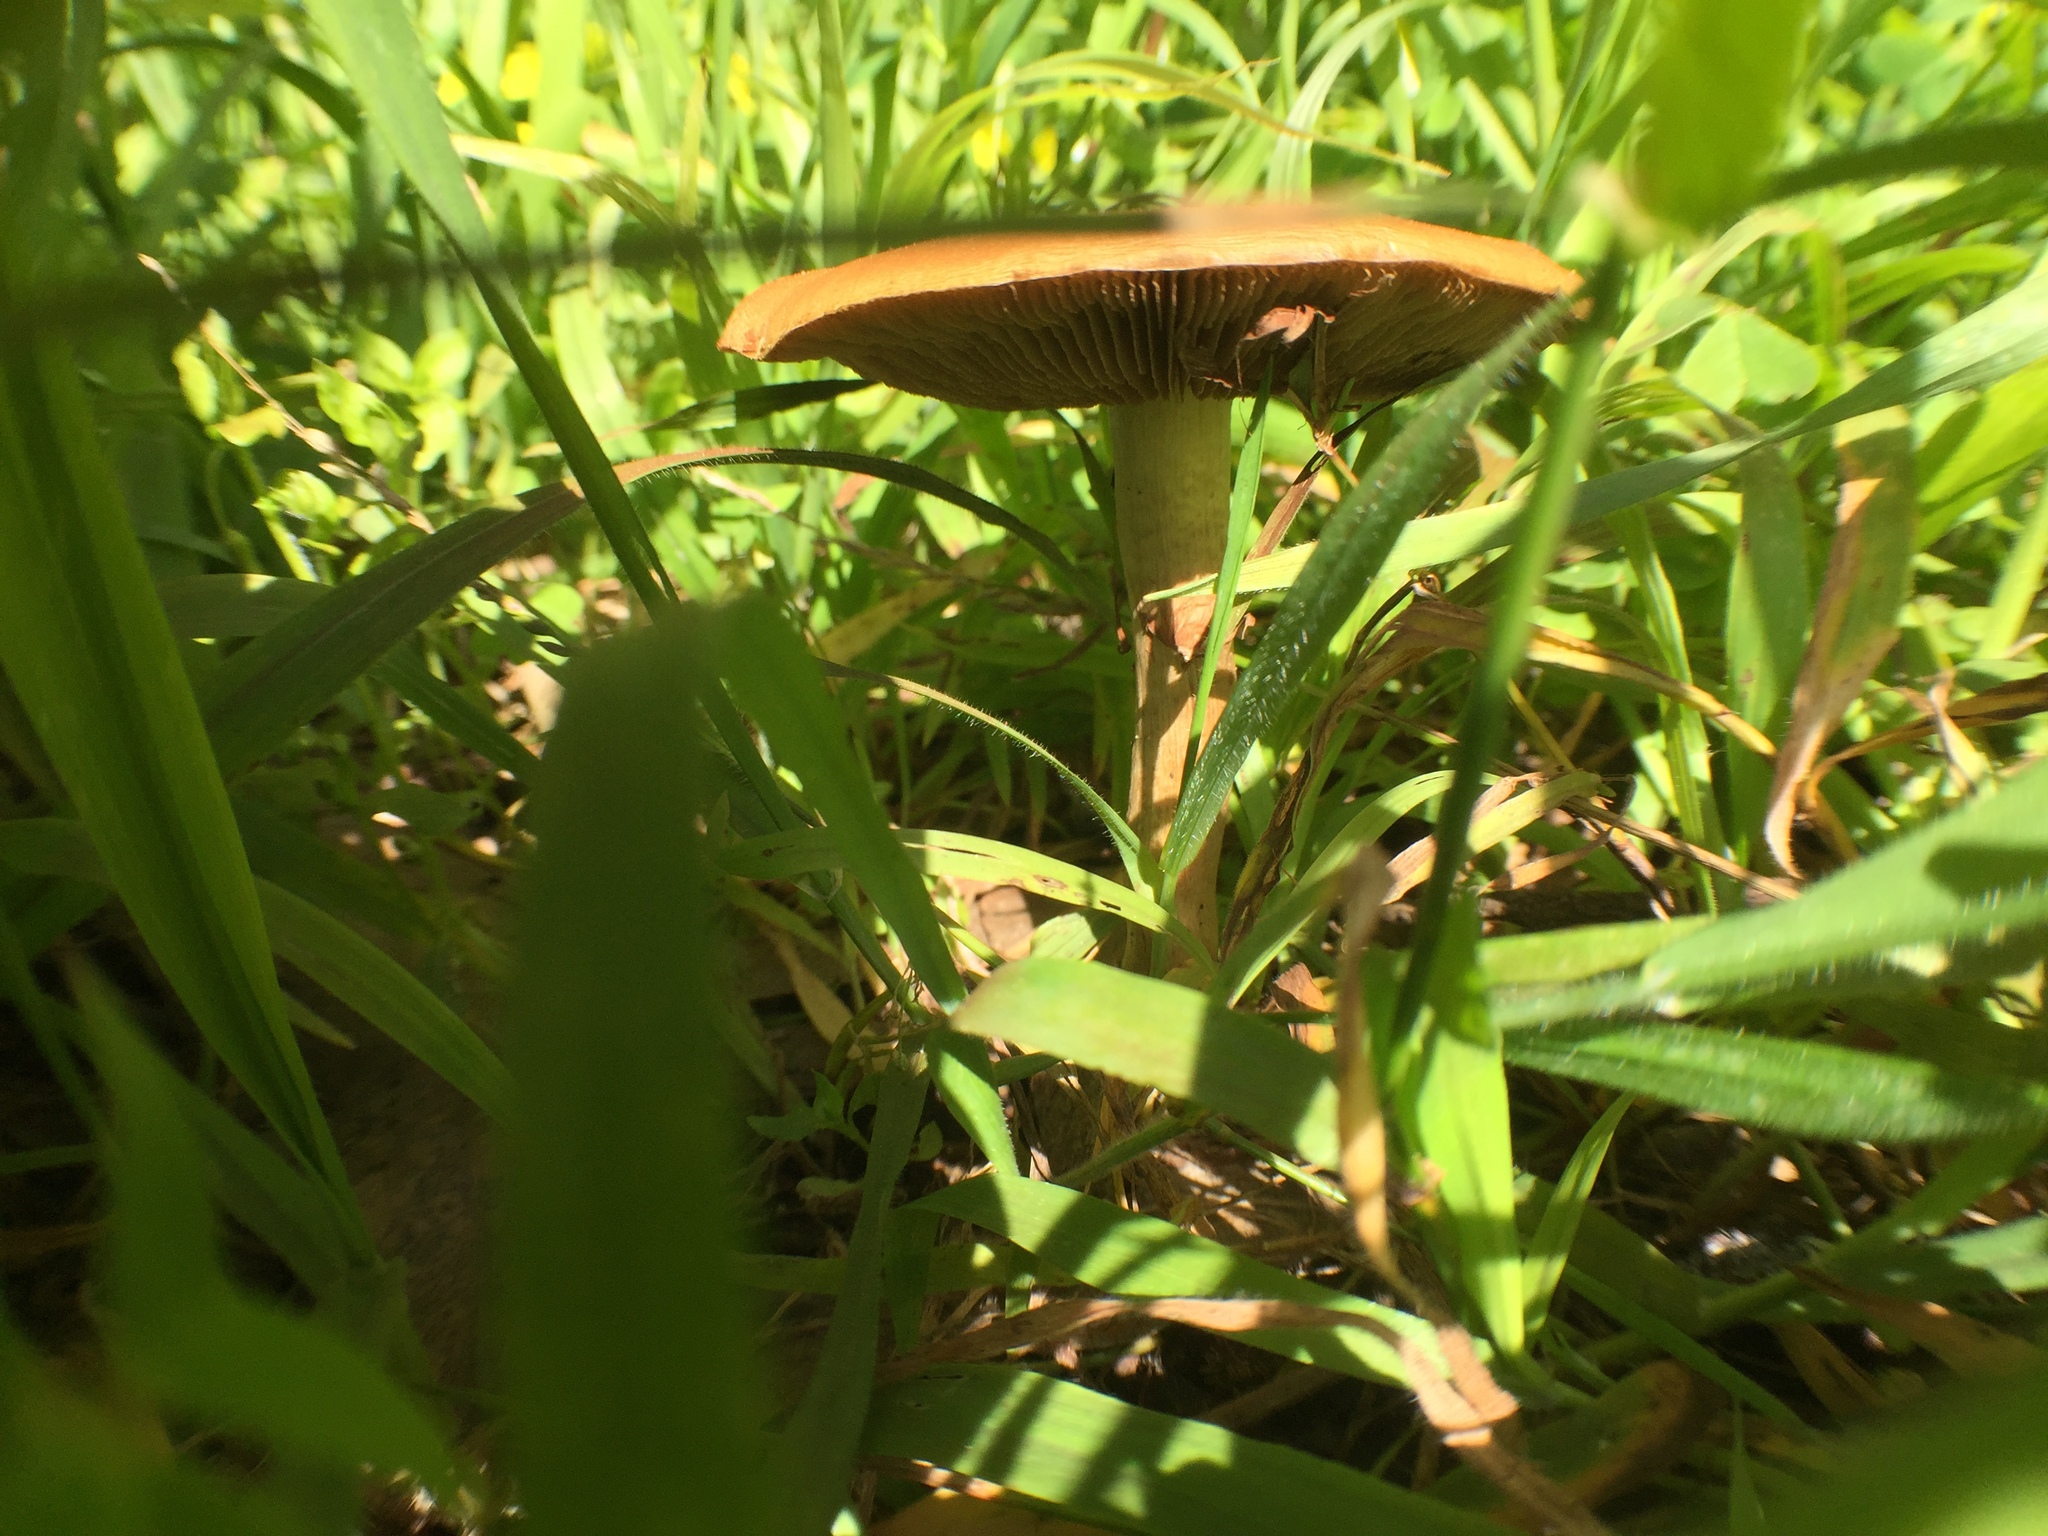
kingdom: Fungi
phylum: Basidiomycota
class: Agaricomycetes
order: Agaricales
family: Strophariaceae
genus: Agrocybe
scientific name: Agrocybe praecox
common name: Spring fieldcap
